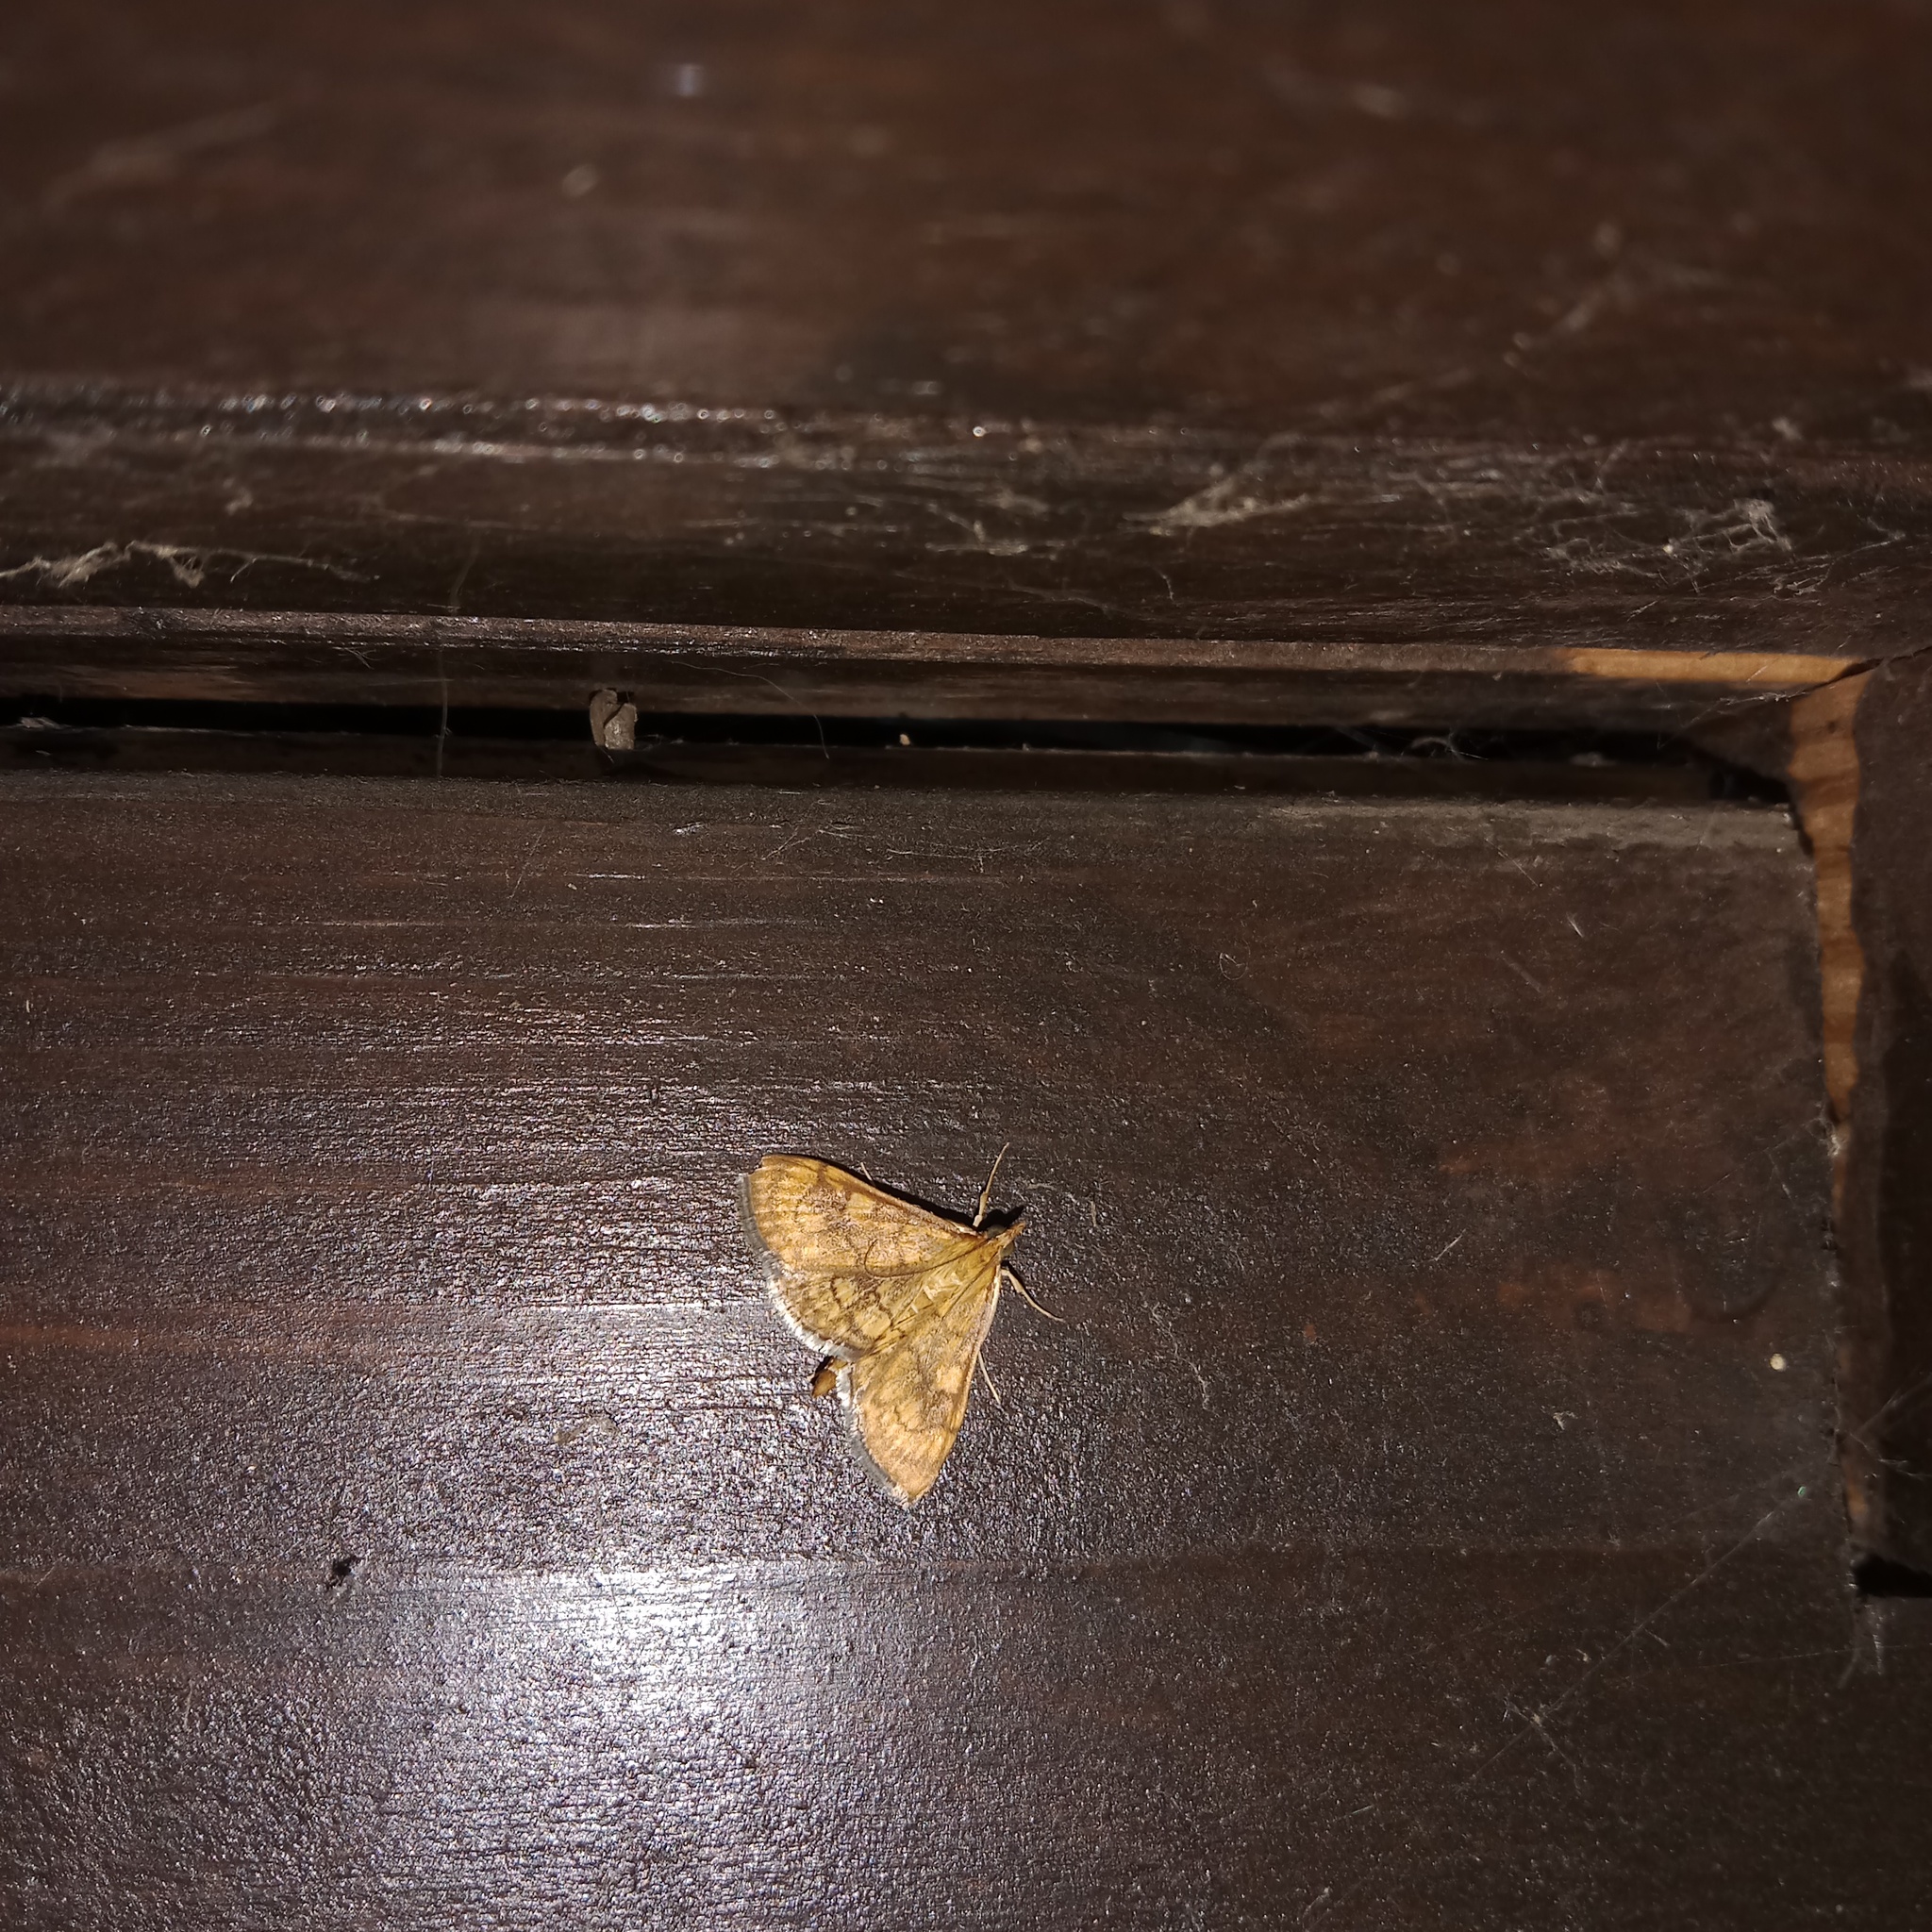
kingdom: Animalia
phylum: Arthropoda
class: Insecta
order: Lepidoptera
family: Crambidae
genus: Anania
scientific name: Anania verbascalis
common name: Golden pearl
